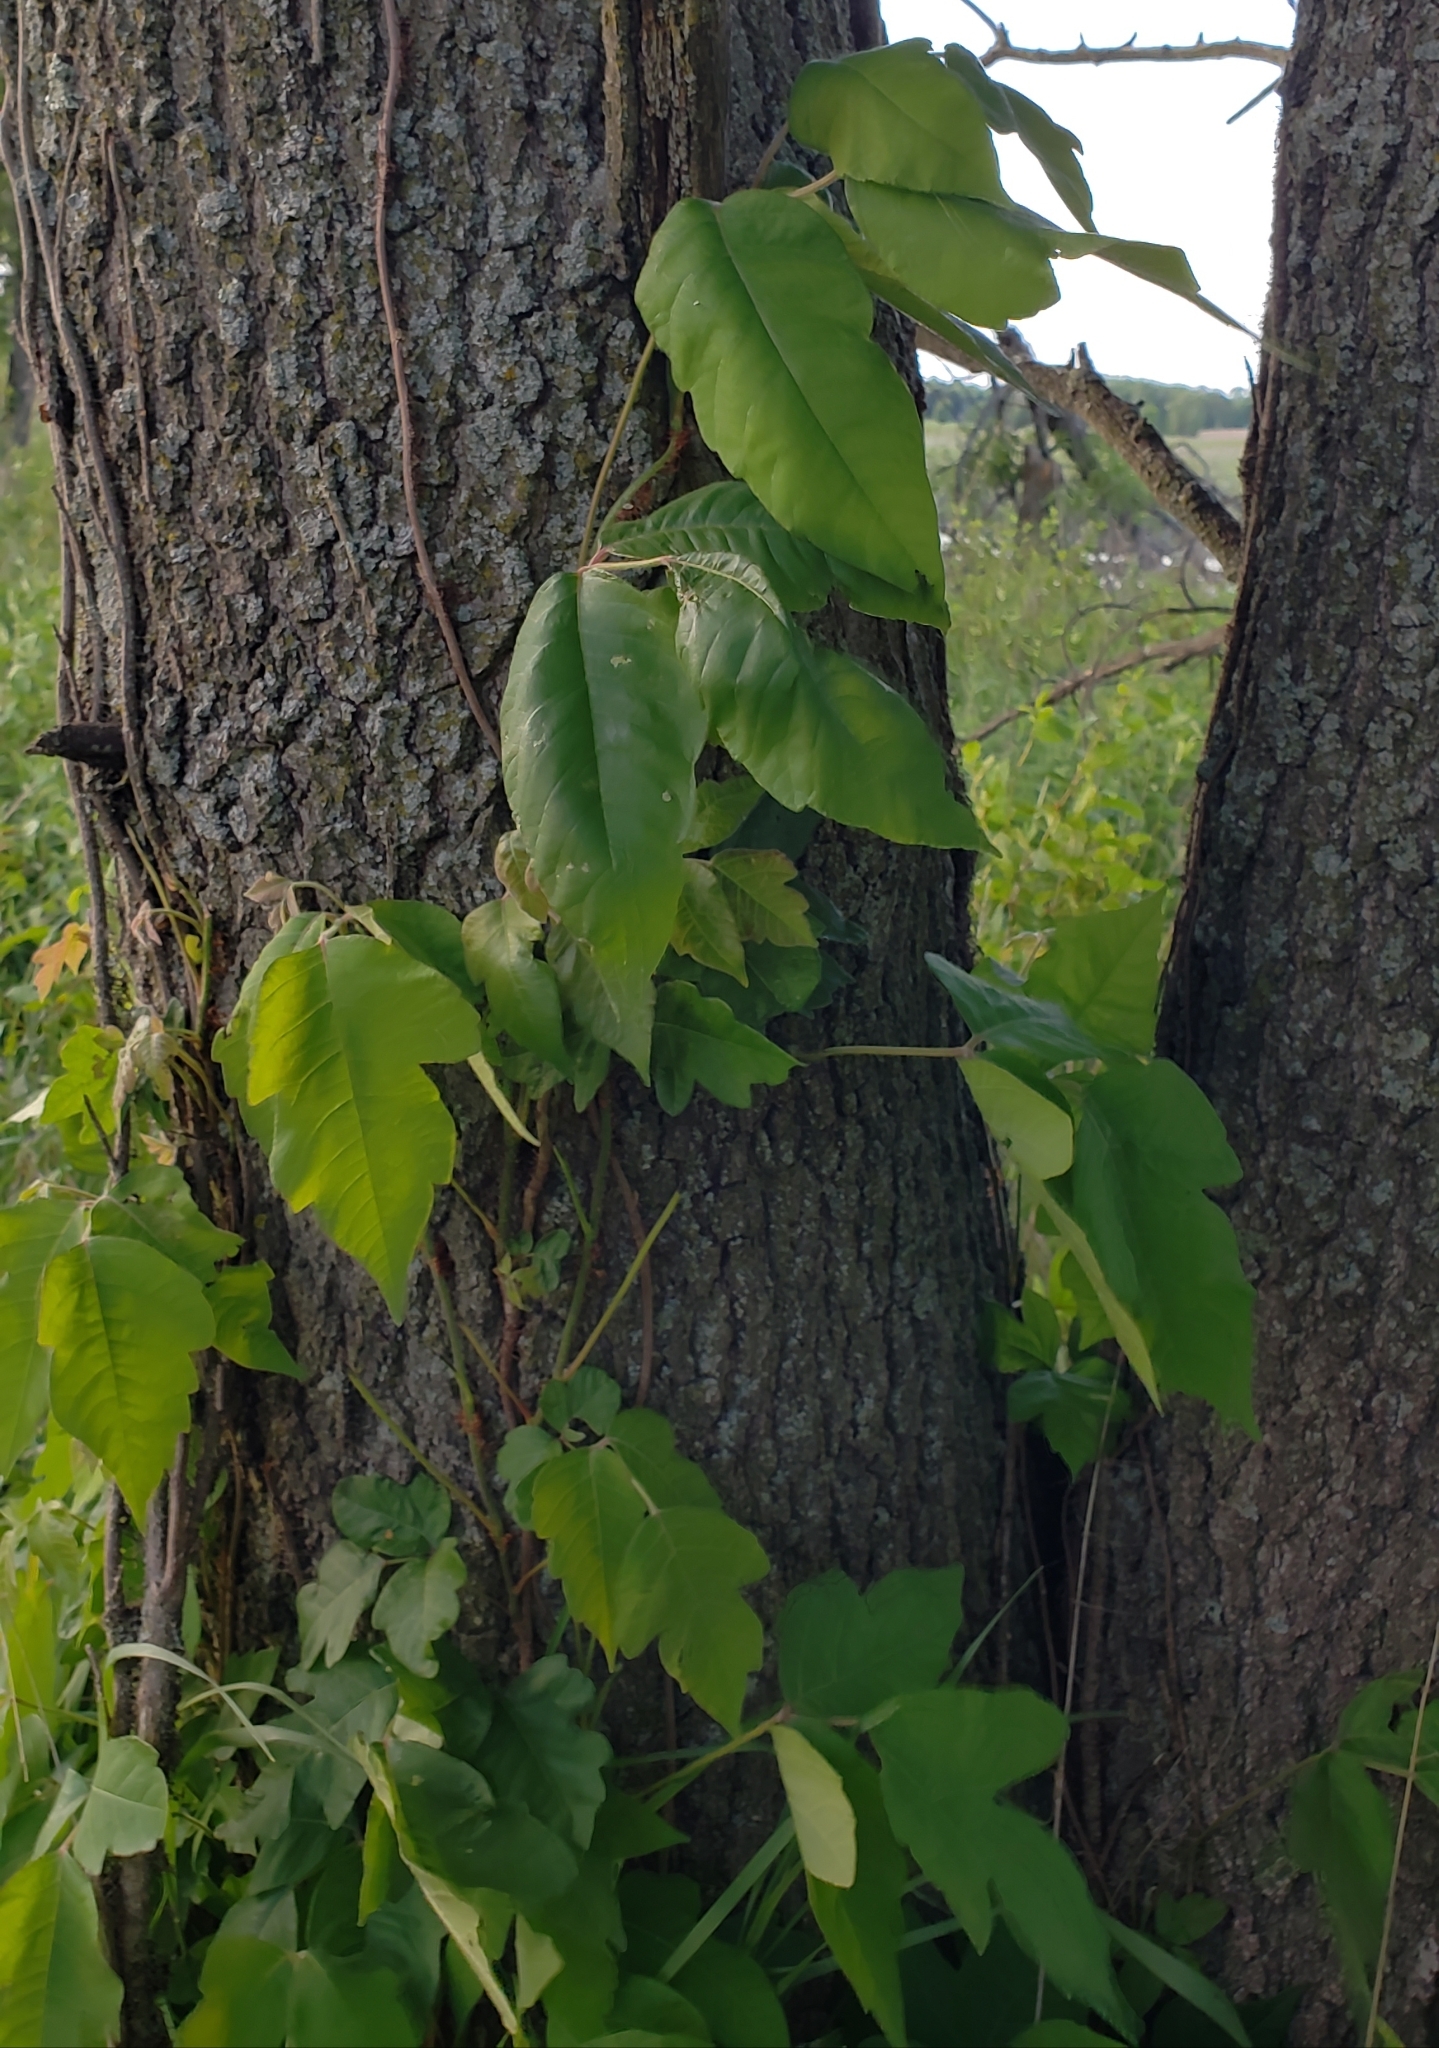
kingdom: Plantae
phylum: Tracheophyta
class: Magnoliopsida
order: Sapindales
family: Anacardiaceae
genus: Toxicodendron
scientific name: Toxicodendron radicans
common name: Poison ivy
